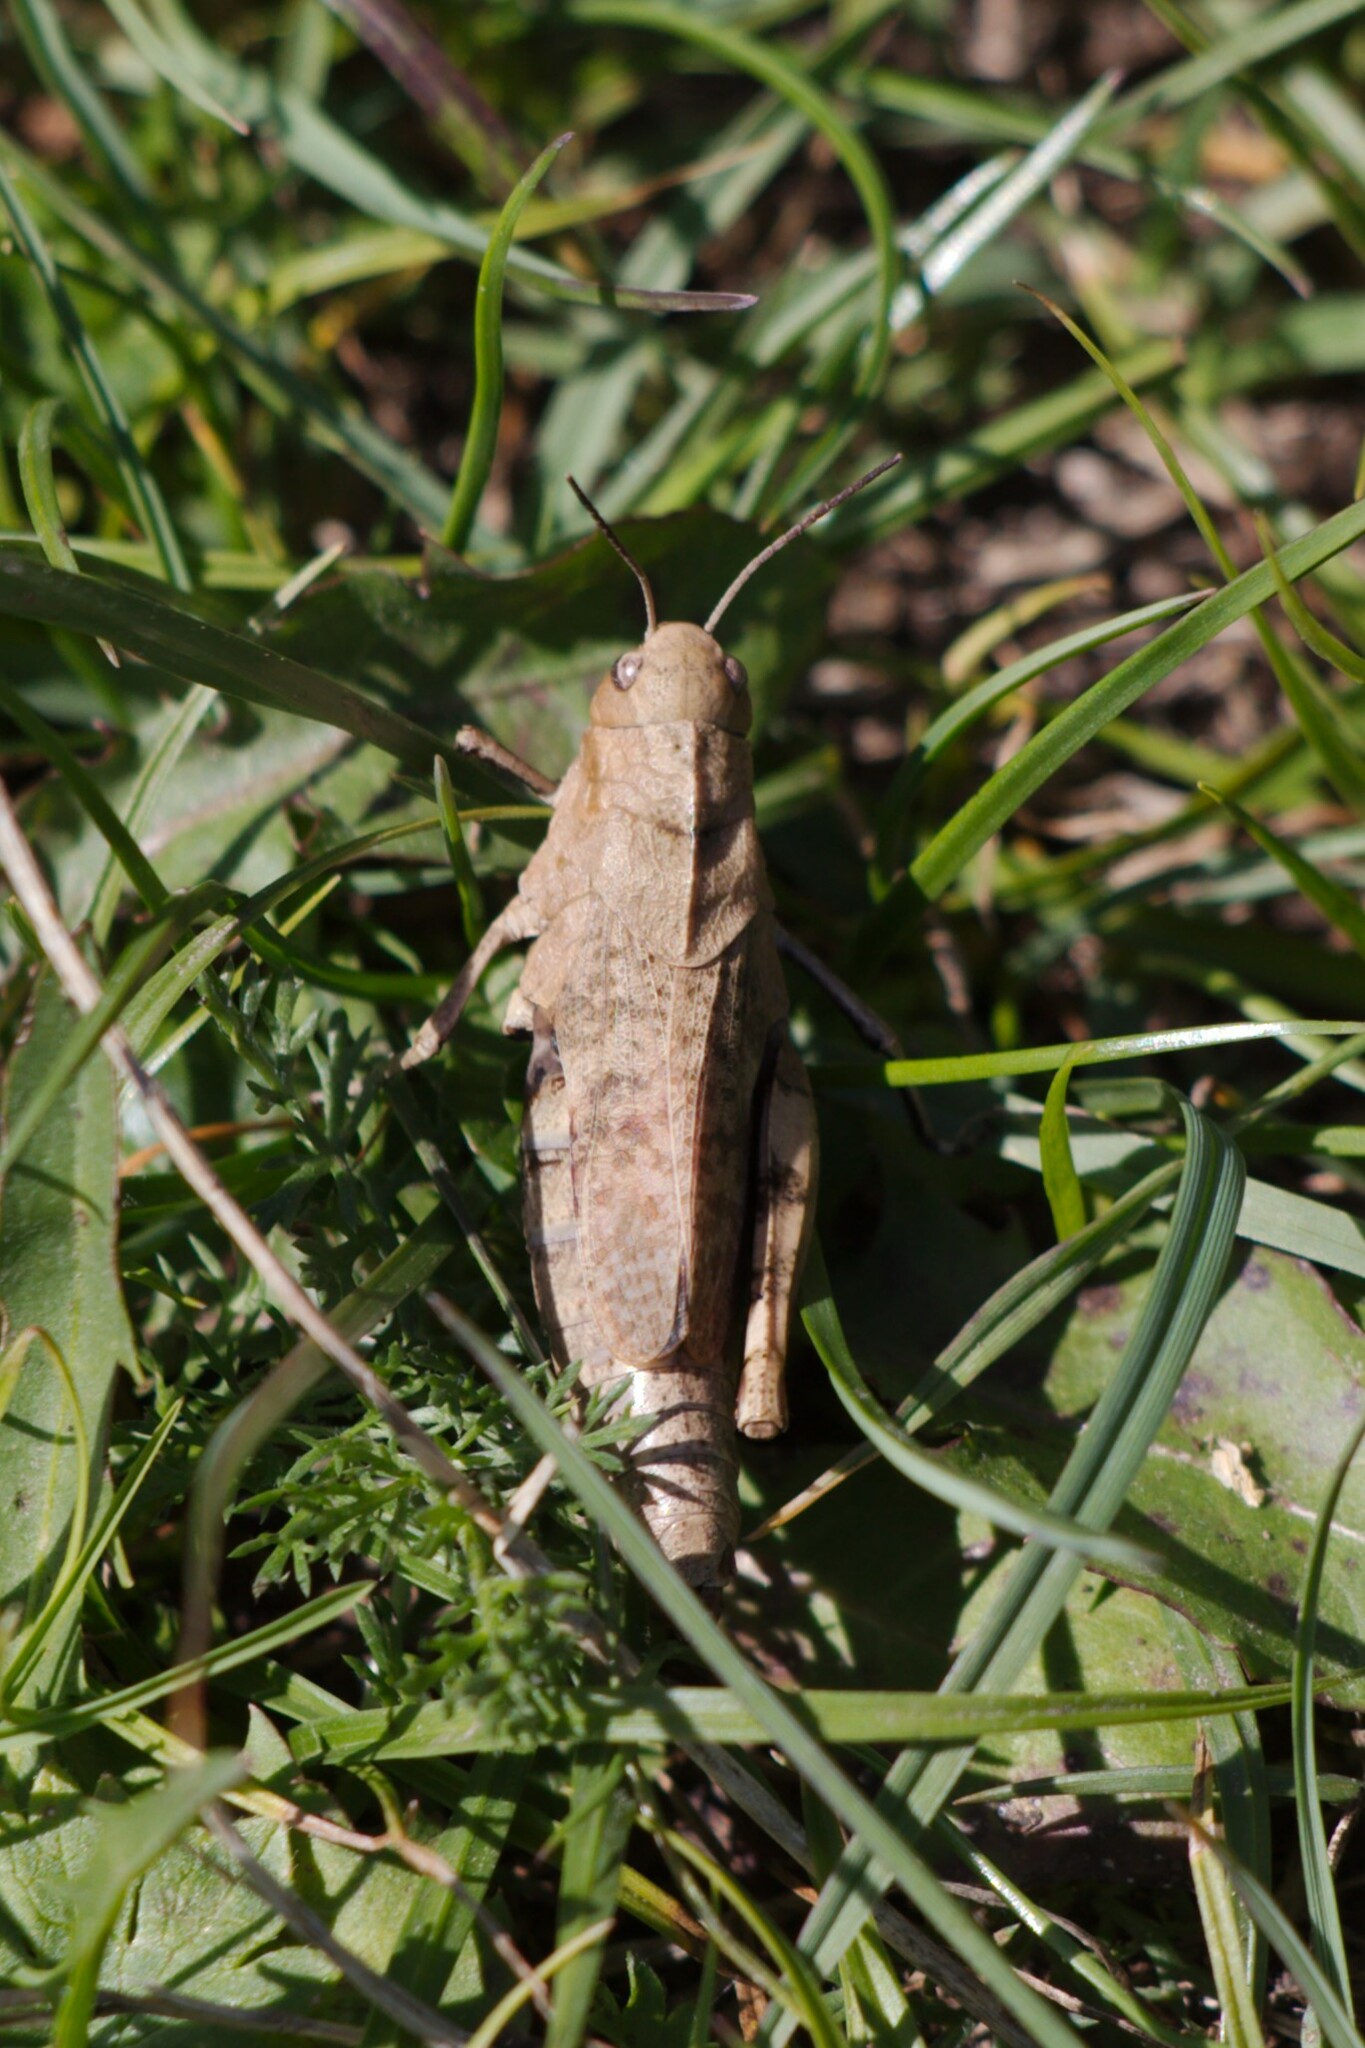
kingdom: Animalia
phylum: Arthropoda
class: Insecta
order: Orthoptera
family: Acrididae
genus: Psophus
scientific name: Psophus stridulus
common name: Rattle grasshopper
